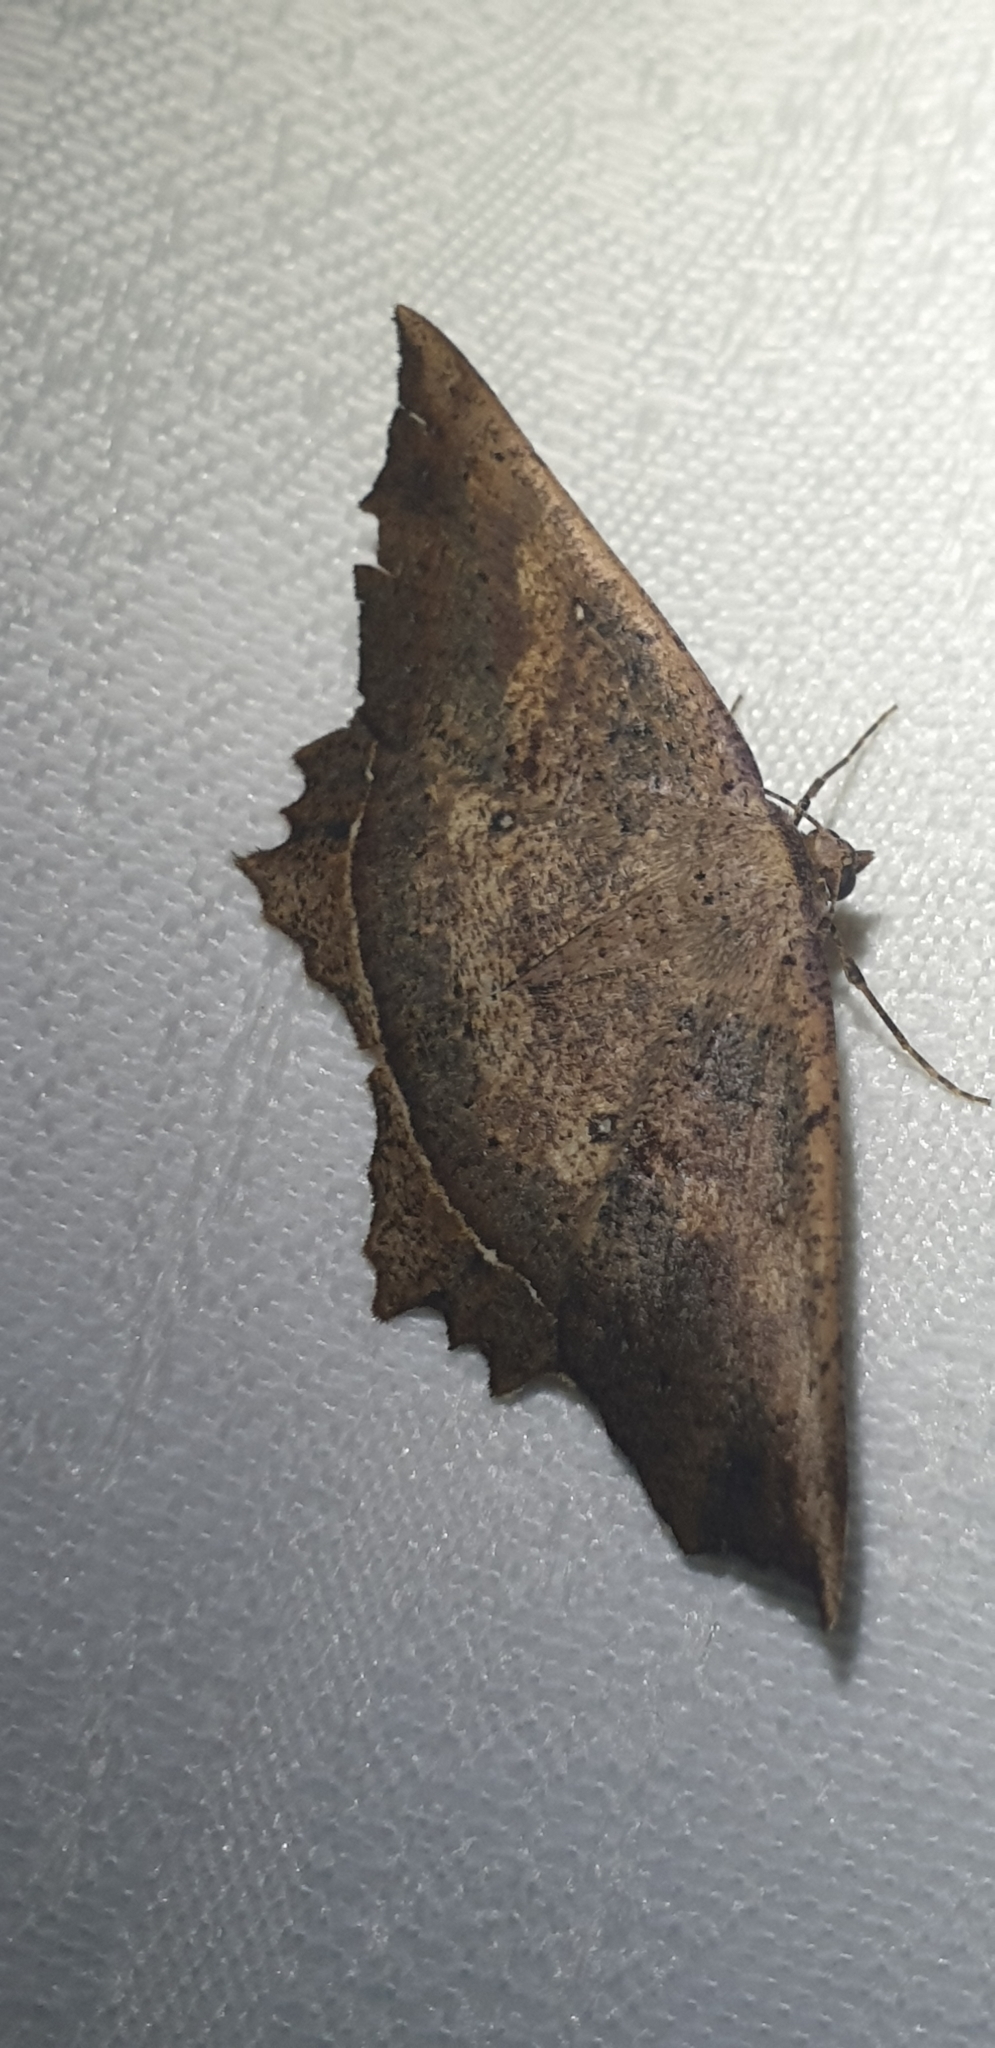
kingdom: Animalia
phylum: Arthropoda
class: Insecta
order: Lepidoptera
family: Geometridae
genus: Polyacme
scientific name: Polyacme subpulchra
